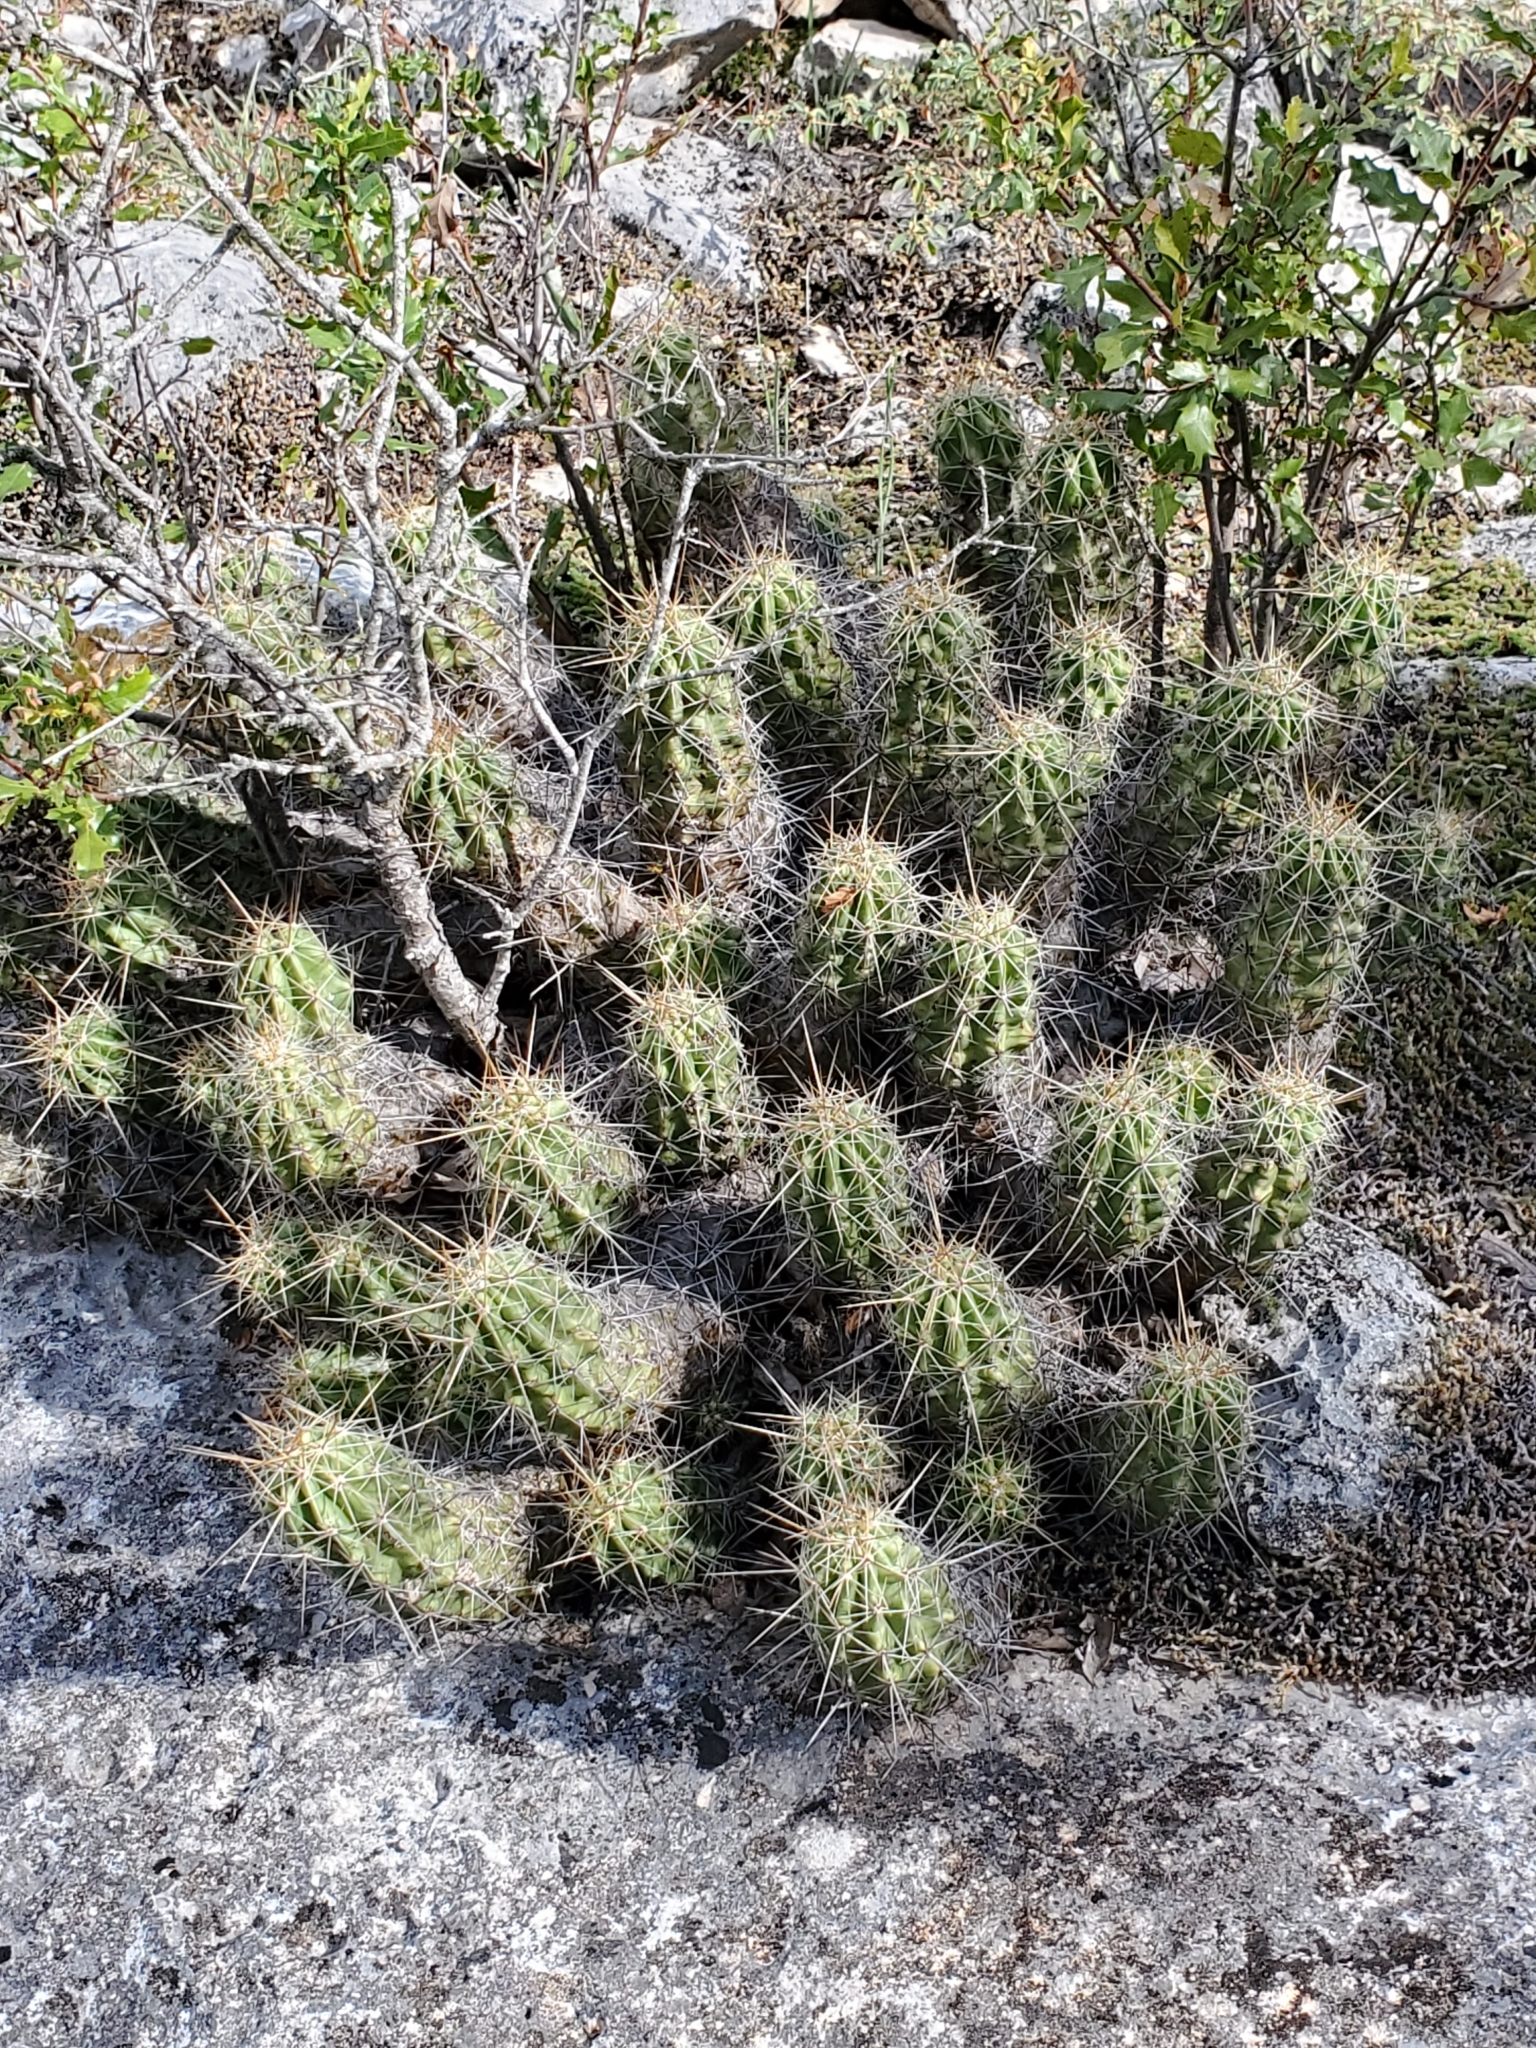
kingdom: Plantae
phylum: Tracheophyta
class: Magnoliopsida
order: Caryophyllales
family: Cactaceae
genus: Echinocereus
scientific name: Echinocereus enneacanthus
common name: Pitaya
